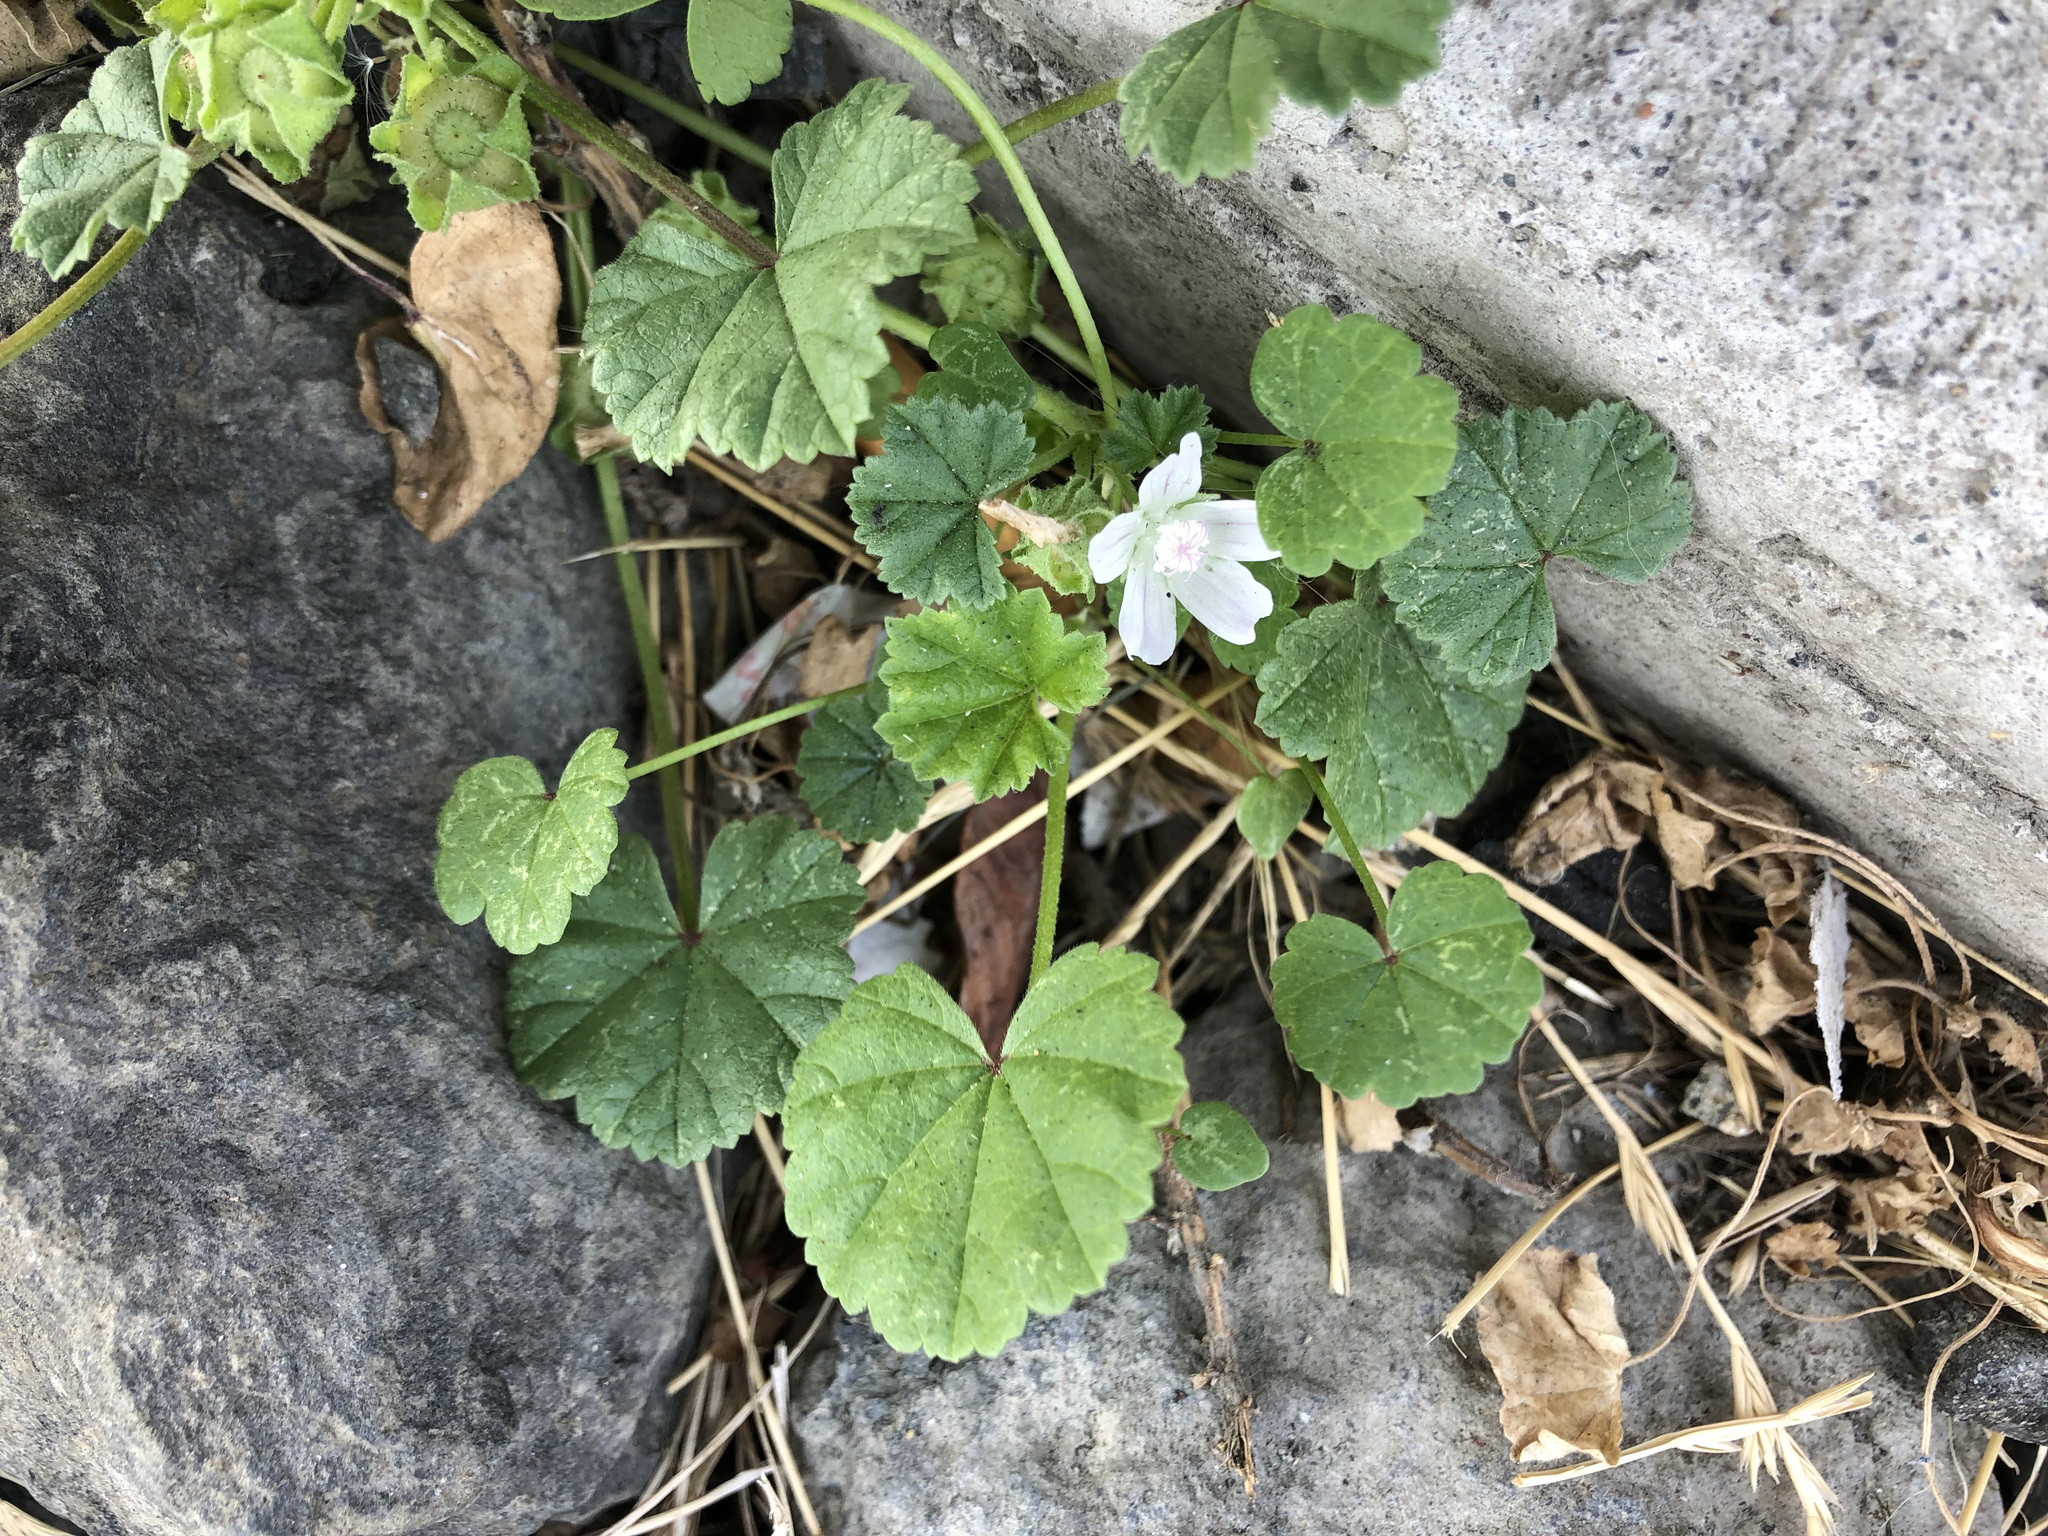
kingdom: Plantae
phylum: Tracheophyta
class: Magnoliopsida
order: Malvales
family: Malvaceae
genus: Malva
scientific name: Malva neglecta
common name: Common mallow
